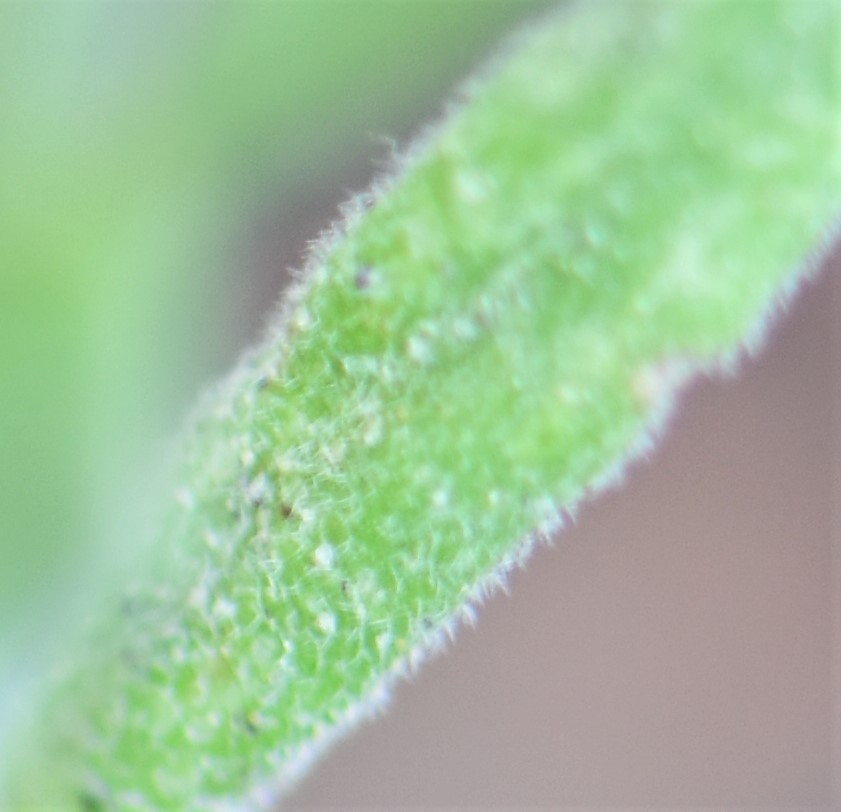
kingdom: Plantae
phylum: Tracheophyta
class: Magnoliopsida
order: Brassicales
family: Brassicaceae
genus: Boechera
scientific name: Boechera pendulocarpa
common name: Dangle-pod rockcress
